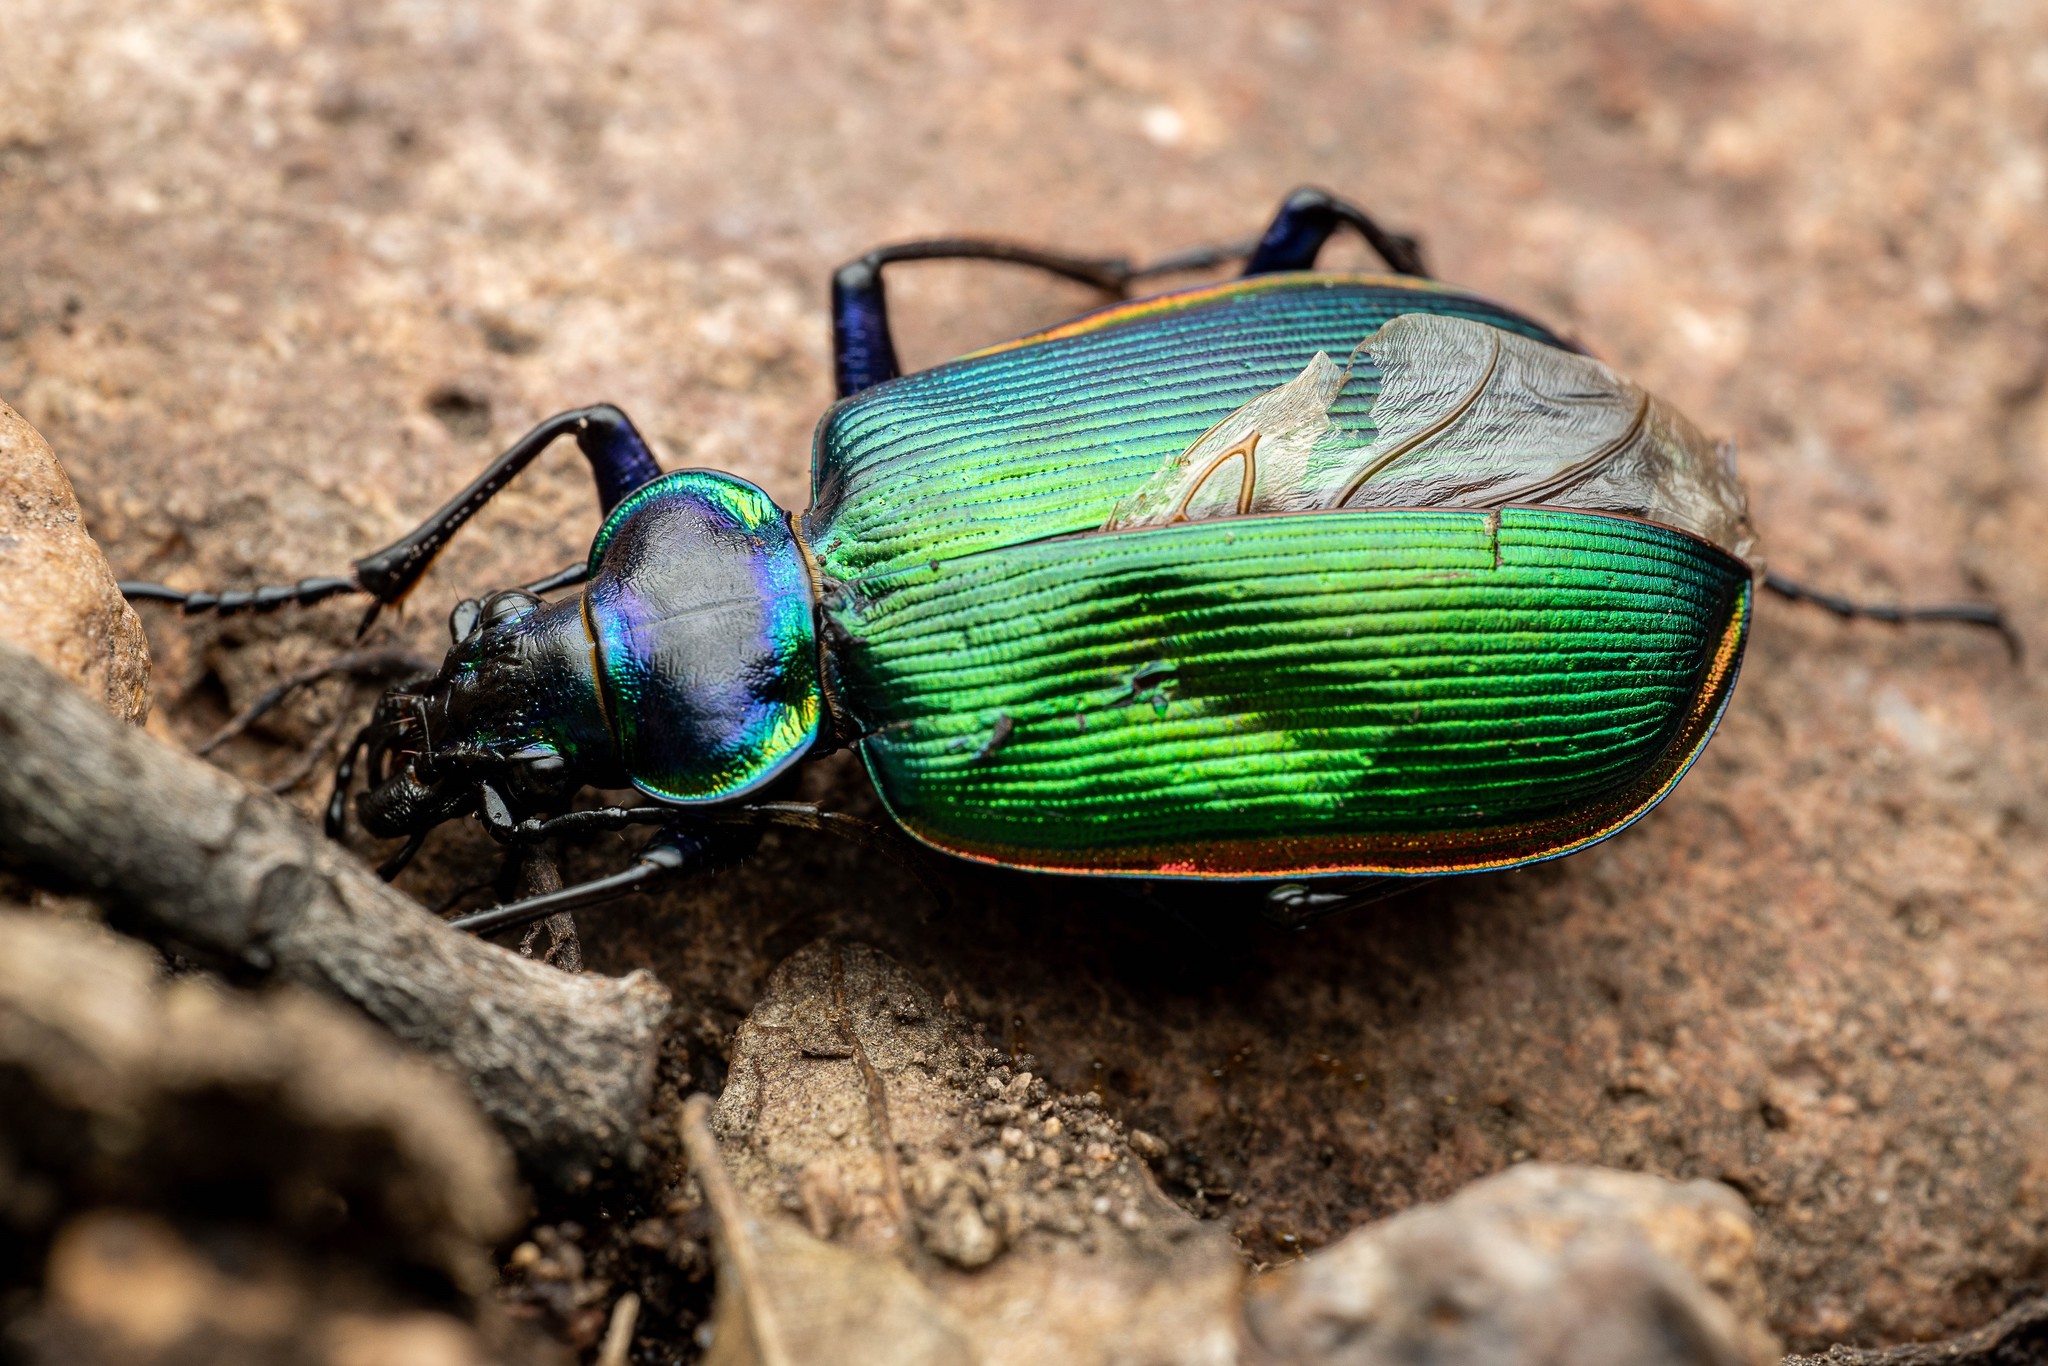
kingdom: Animalia
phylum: Arthropoda
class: Insecta
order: Coleoptera
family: Carabidae
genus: Calosoma
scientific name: Calosoma scrutator
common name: Fiery searcher beetle
